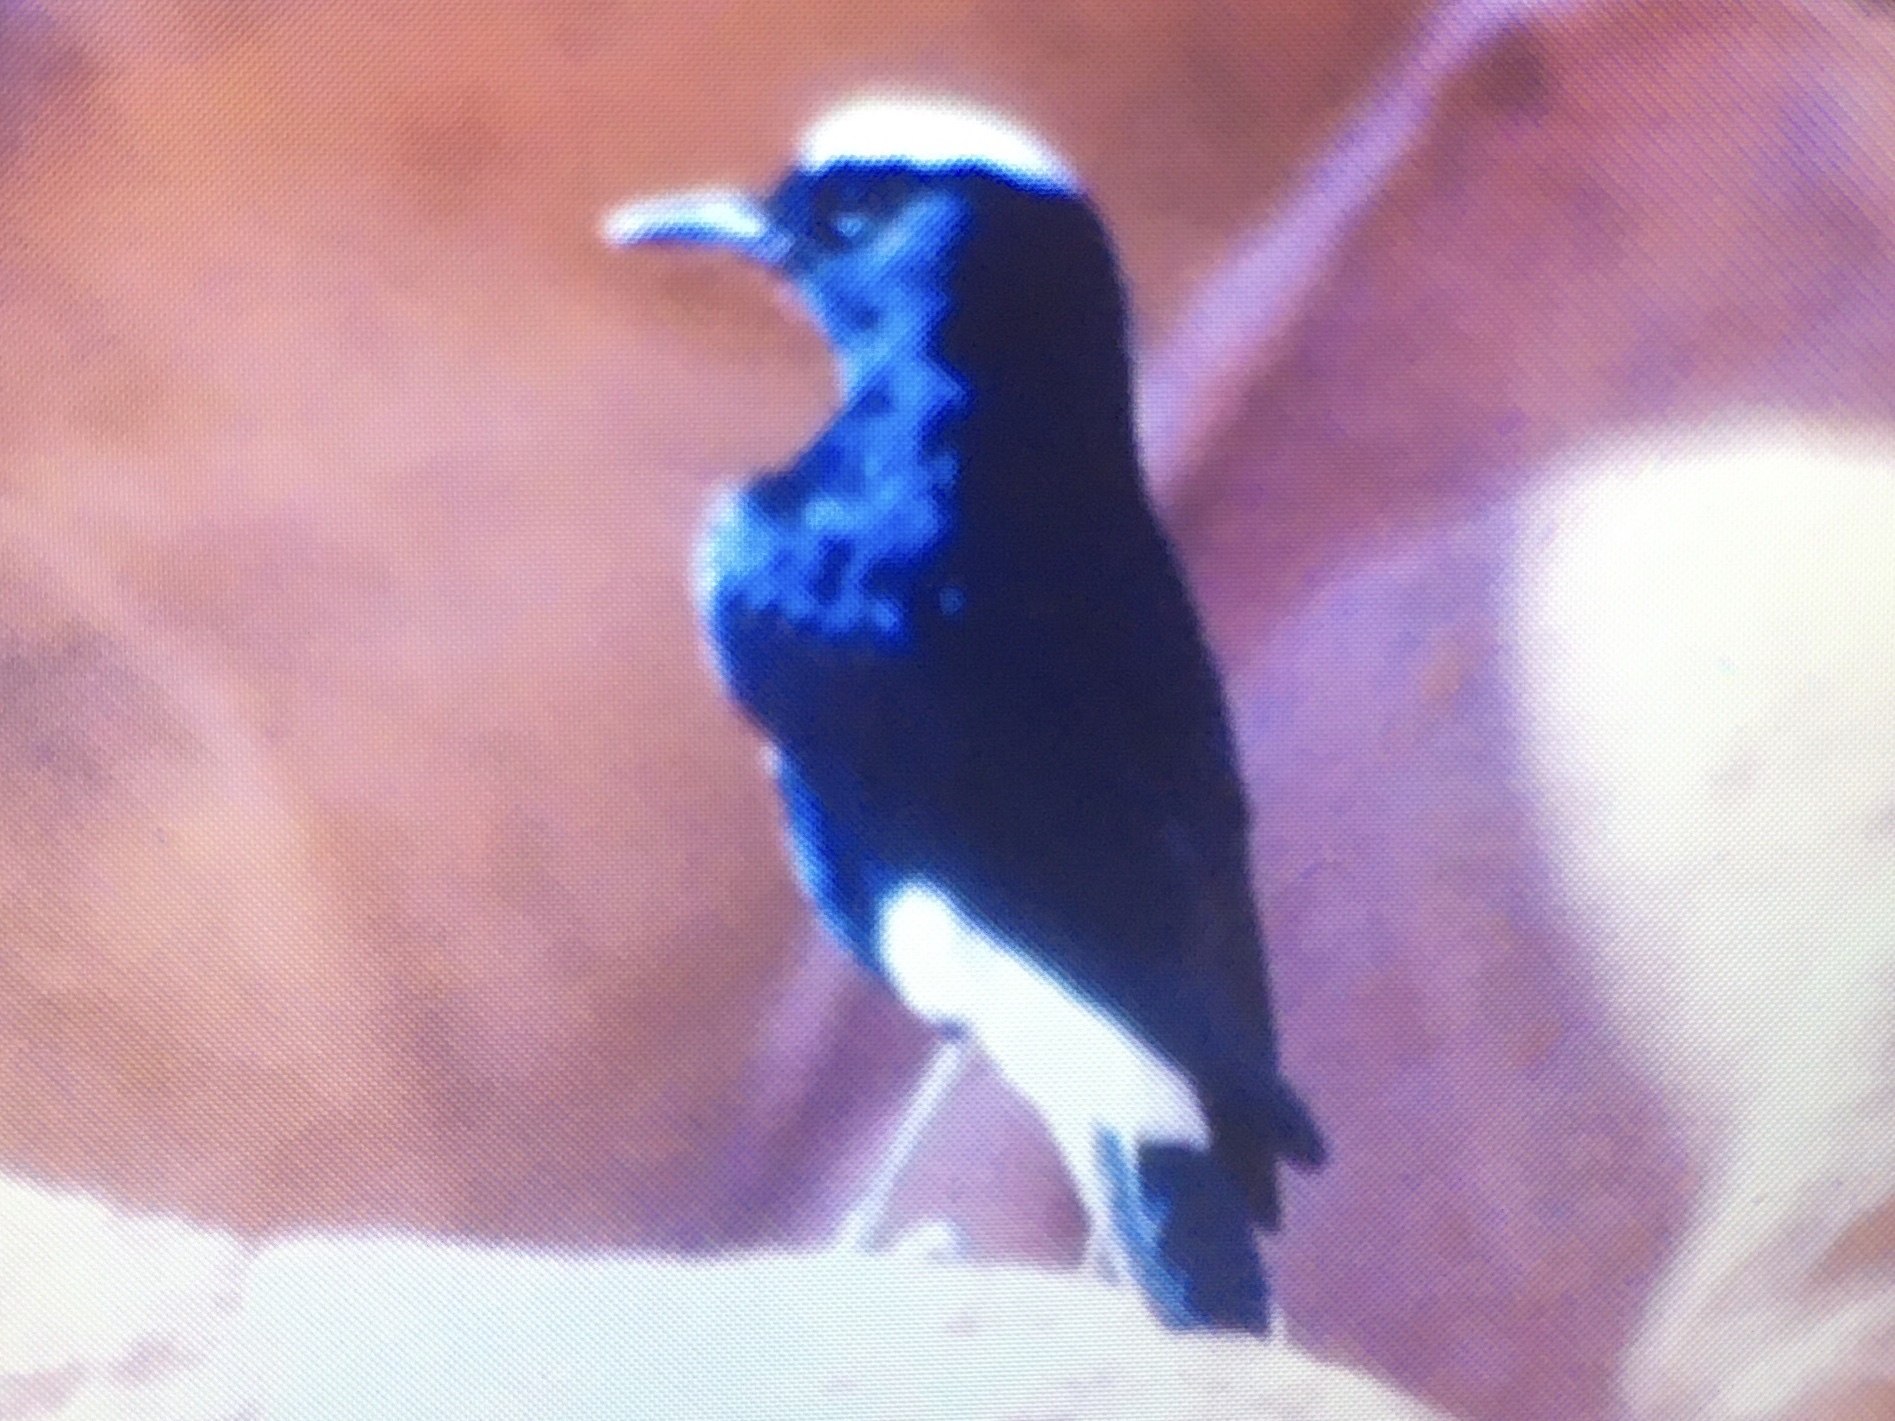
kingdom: Animalia
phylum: Chordata
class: Aves
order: Passeriformes
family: Muscicapidae
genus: Oenanthe
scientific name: Oenanthe leucopyga
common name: White-crowned wheatear
